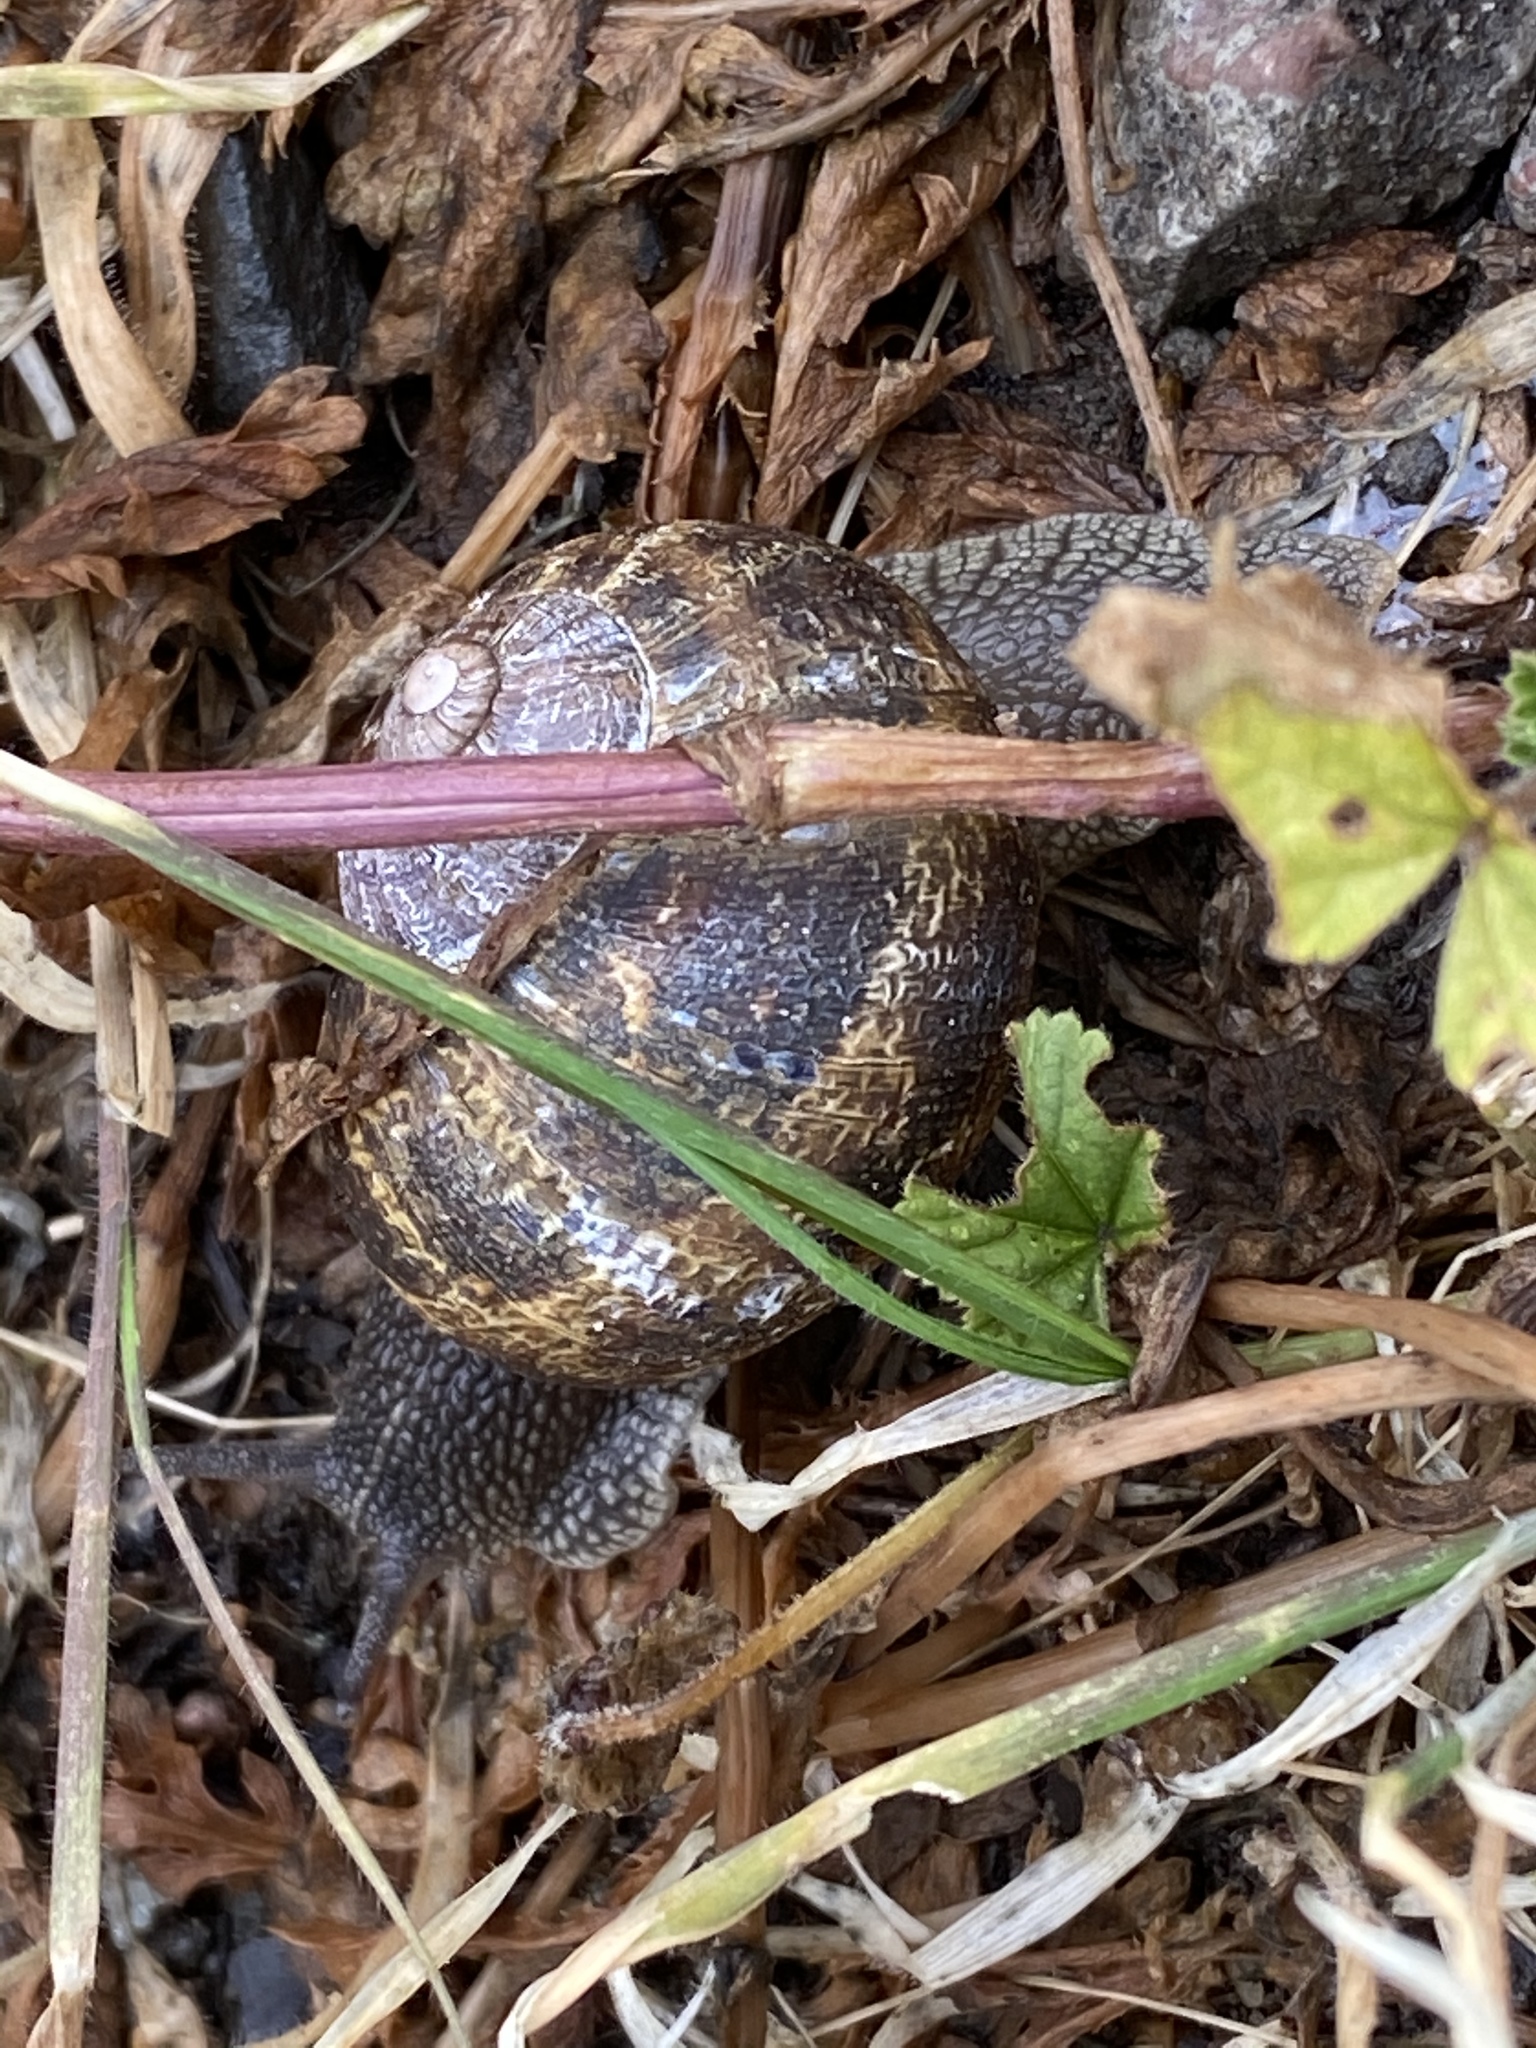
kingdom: Animalia
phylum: Mollusca
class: Gastropoda
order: Stylommatophora
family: Helicidae
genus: Cornu
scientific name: Cornu aspersum
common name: Brown garden snail
